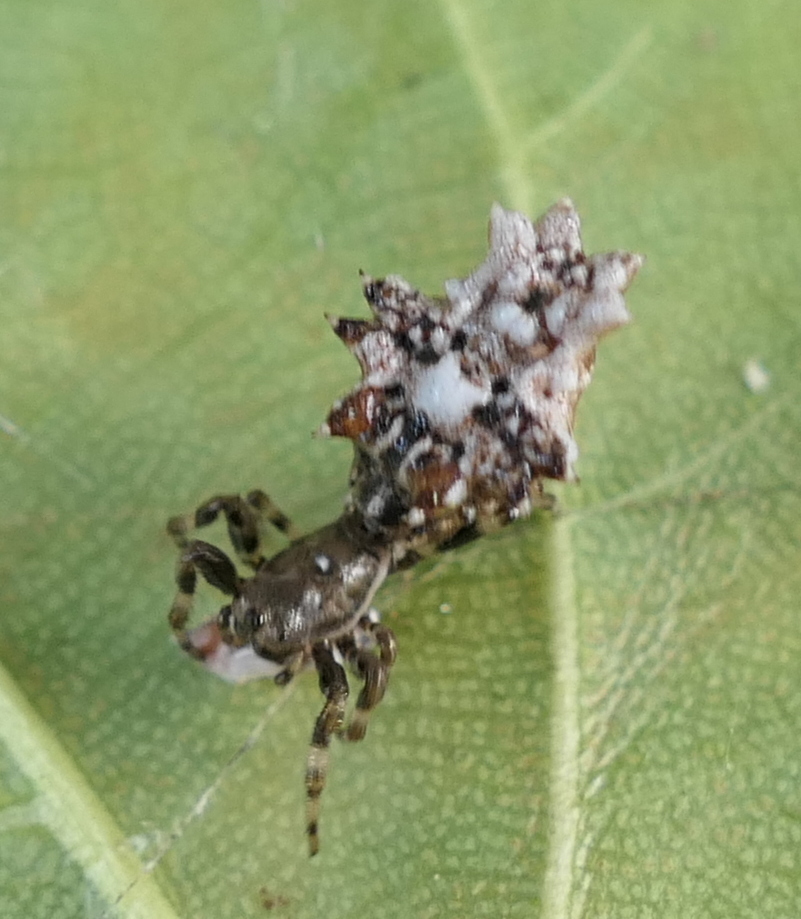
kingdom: Animalia
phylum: Arthropoda
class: Arachnida
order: Araneae
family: Araneidae
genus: Micrathena
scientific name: Micrathena horrida
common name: Orb weavers
